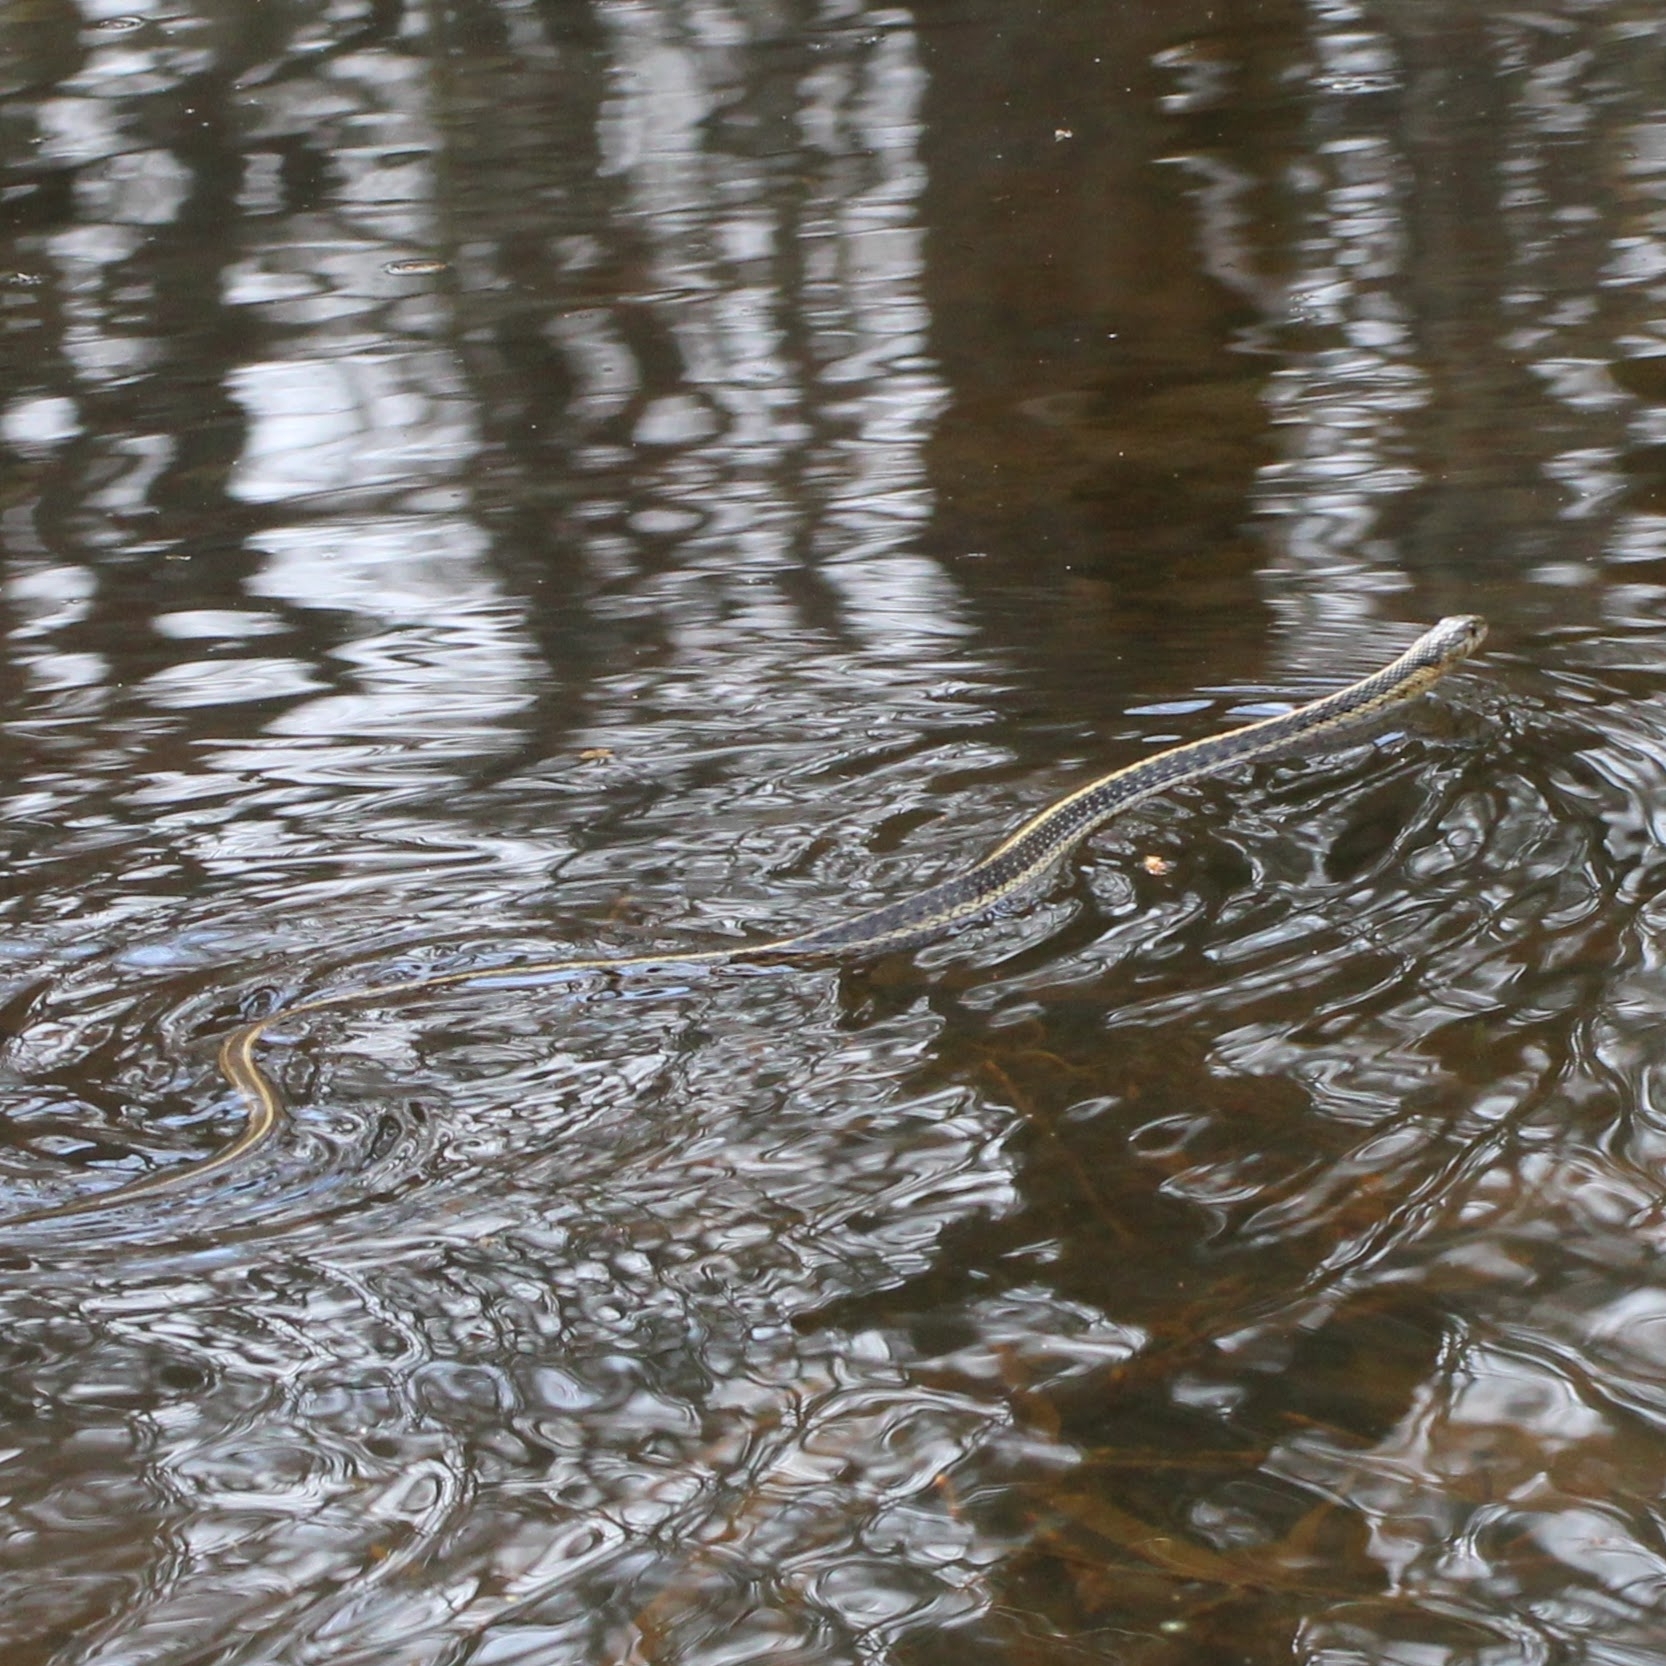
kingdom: Animalia
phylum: Chordata
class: Squamata
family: Colubridae
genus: Thamnophis
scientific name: Thamnophis sirtalis
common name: Common garter snake
